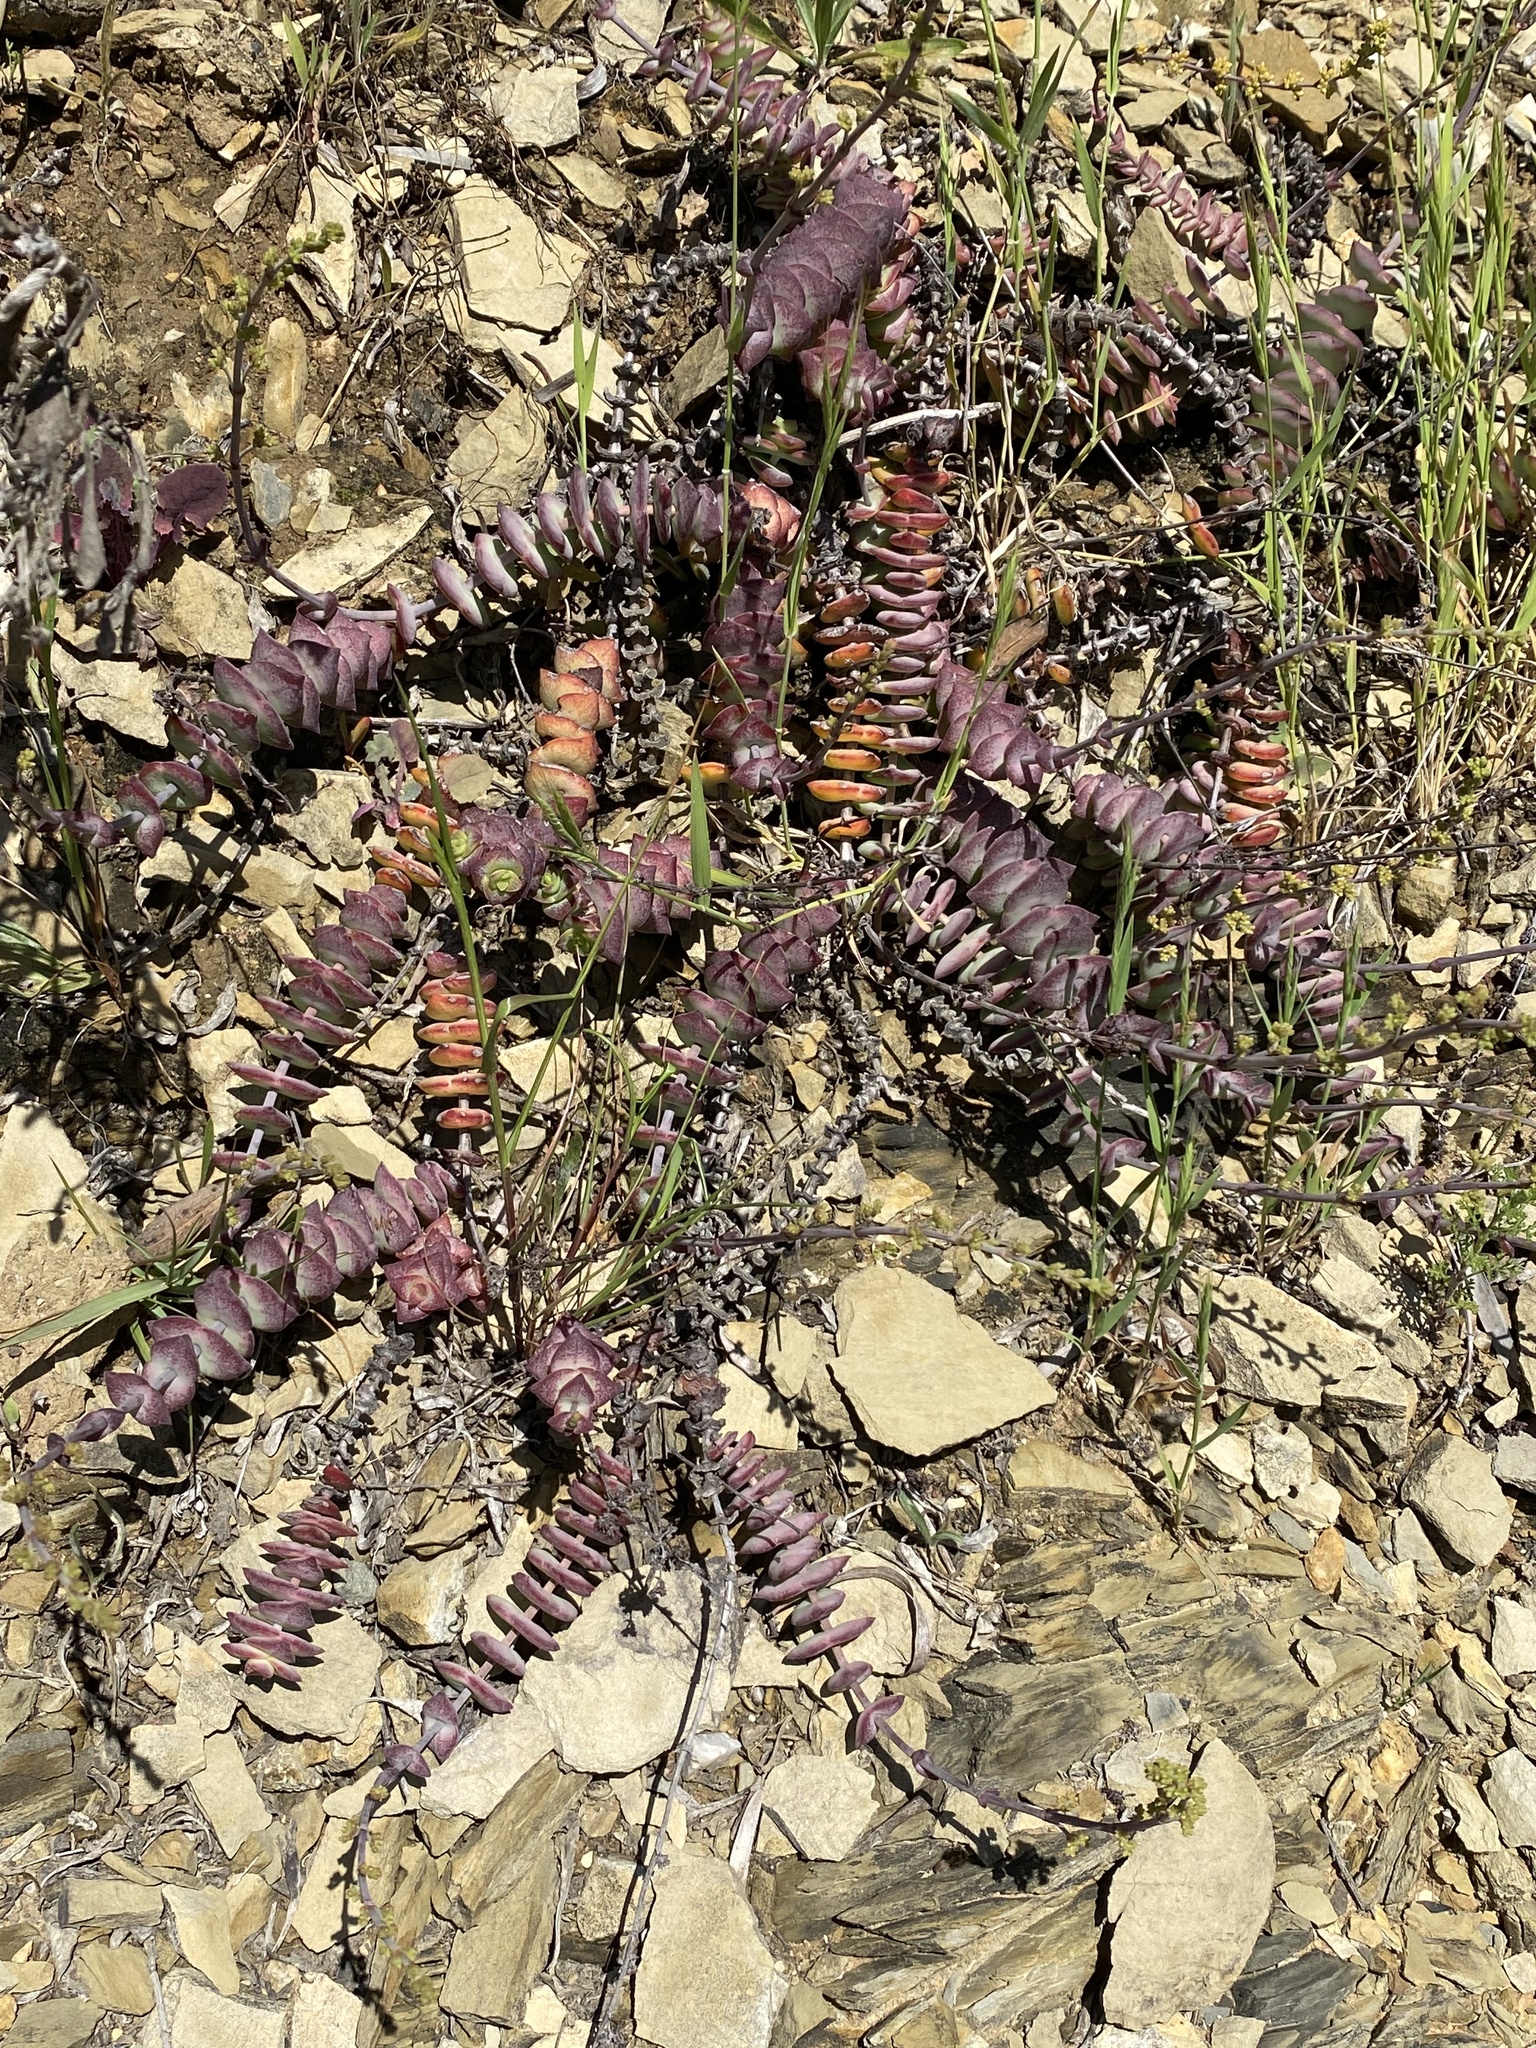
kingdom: Plantae
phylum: Tracheophyta
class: Magnoliopsida
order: Saxifragales
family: Crassulaceae
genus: Crassula
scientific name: Crassula perforata
